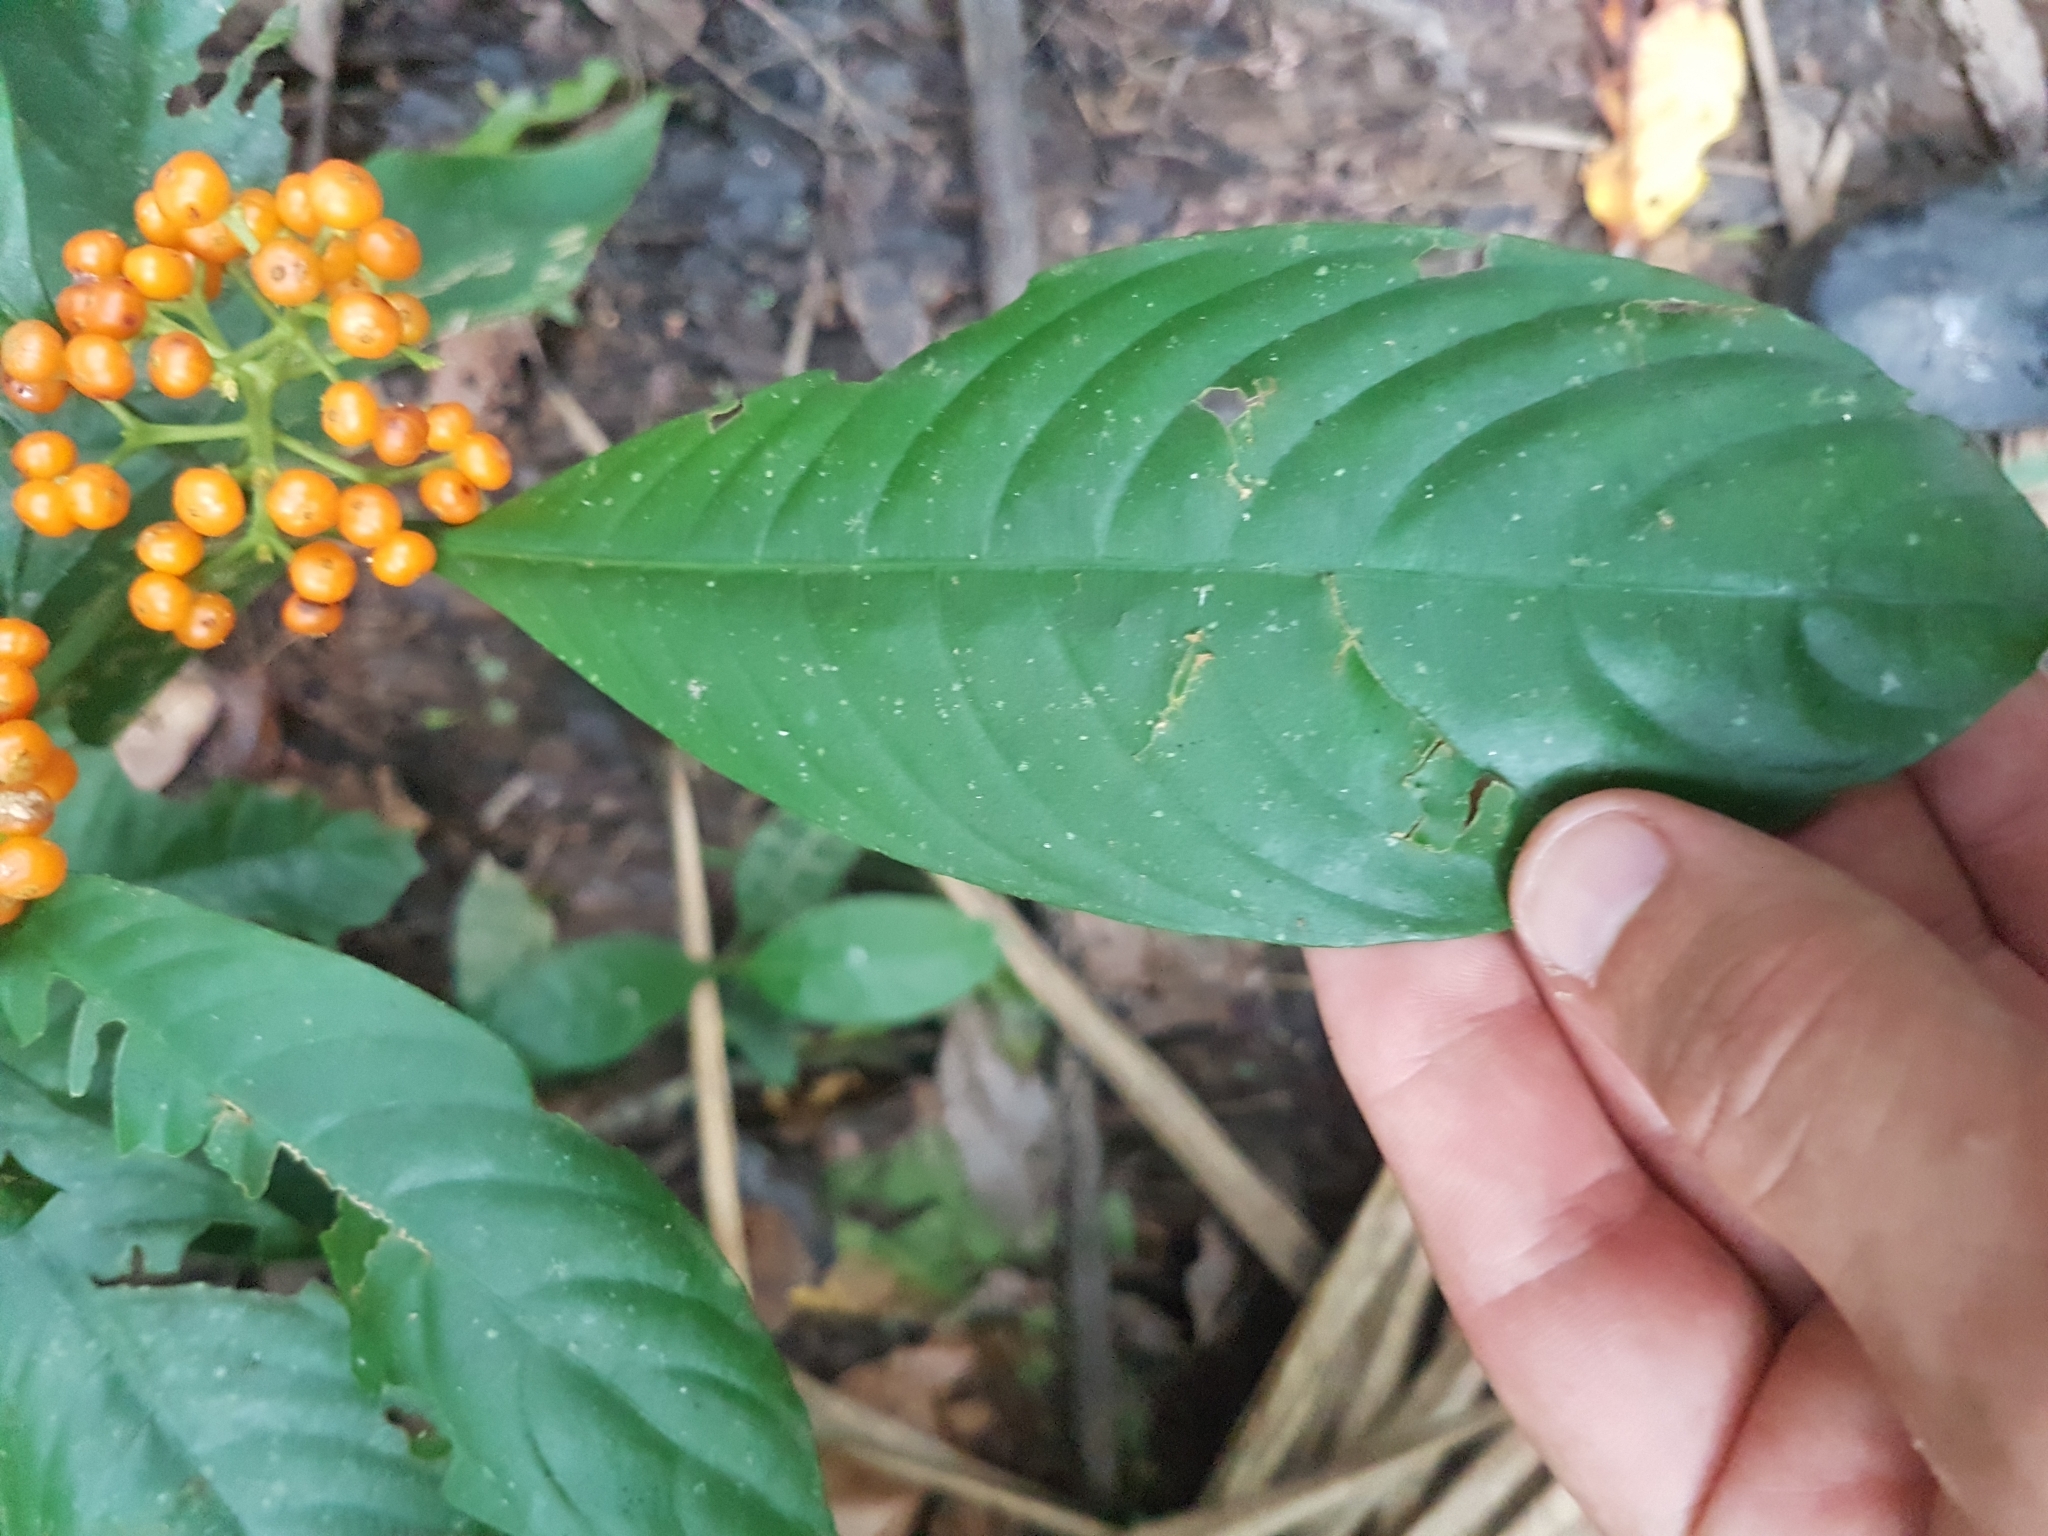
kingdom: Plantae
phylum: Tracheophyta
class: Magnoliopsida
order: Gentianales
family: Rubiaceae
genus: Palicourea
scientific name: Palicourea racemosa
